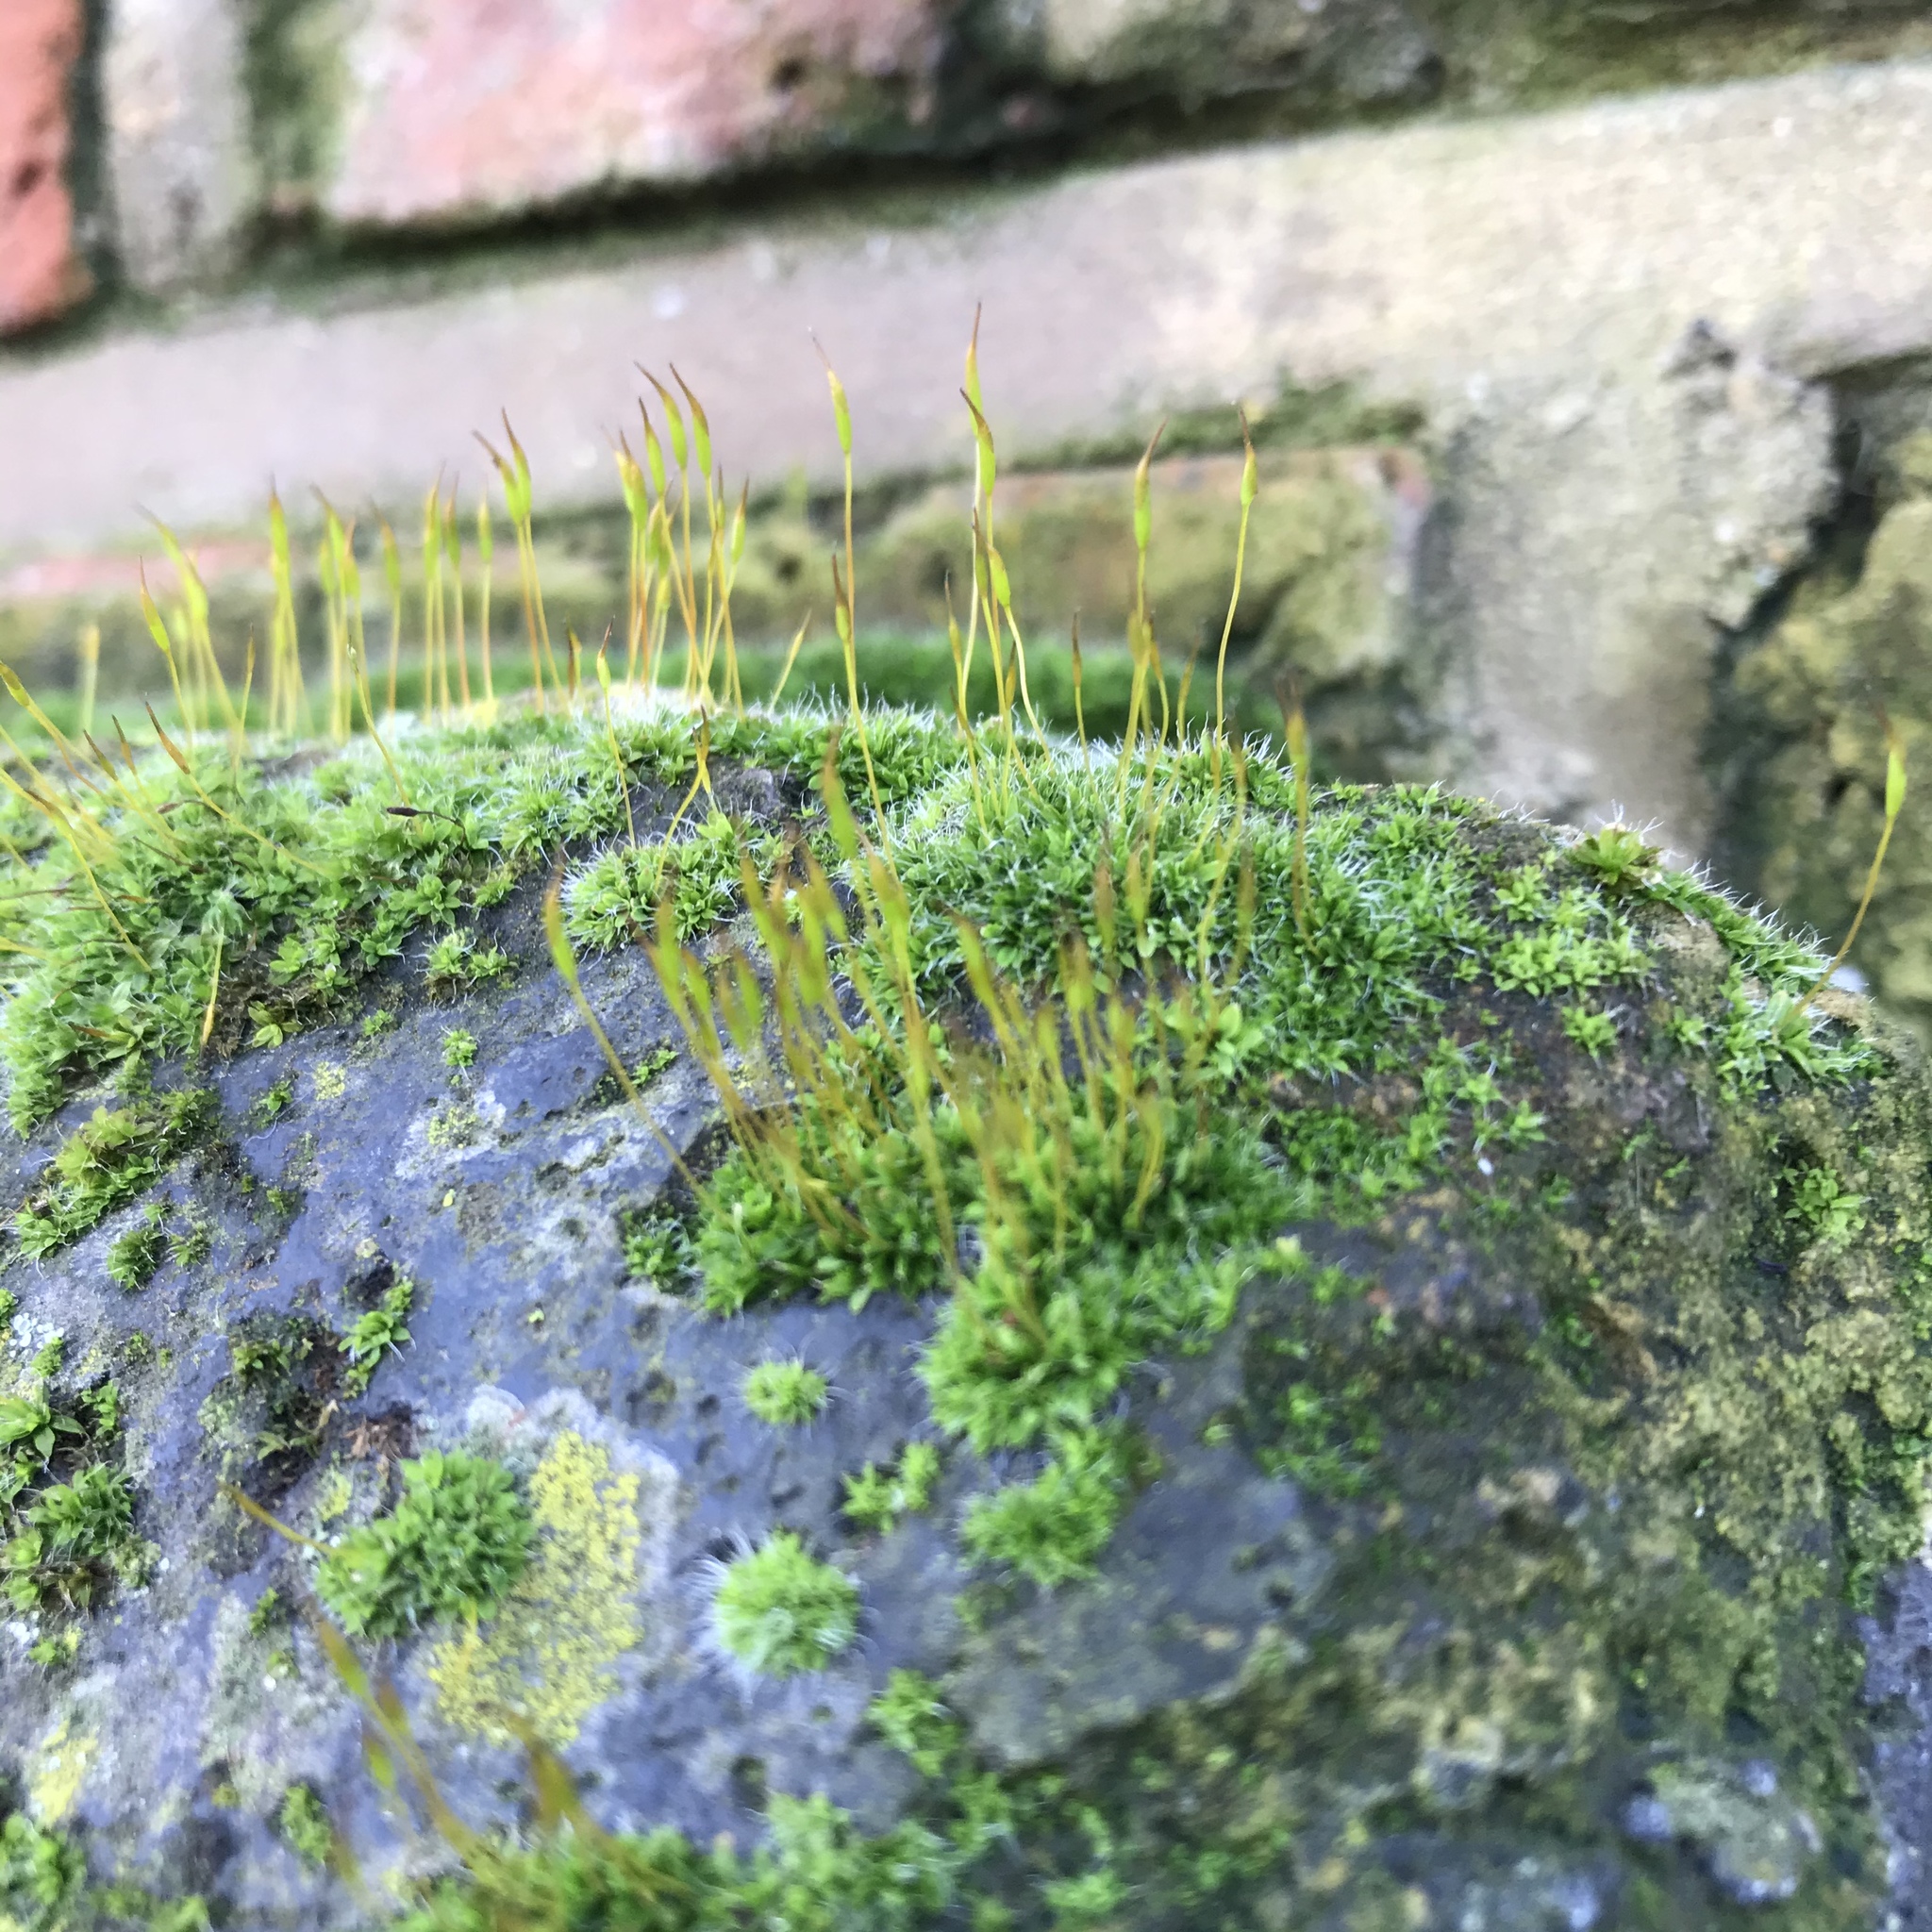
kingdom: Plantae
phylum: Bryophyta
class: Bryopsida
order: Pottiales
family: Pottiaceae
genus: Tortula
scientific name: Tortula muralis
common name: Wall screw-moss
